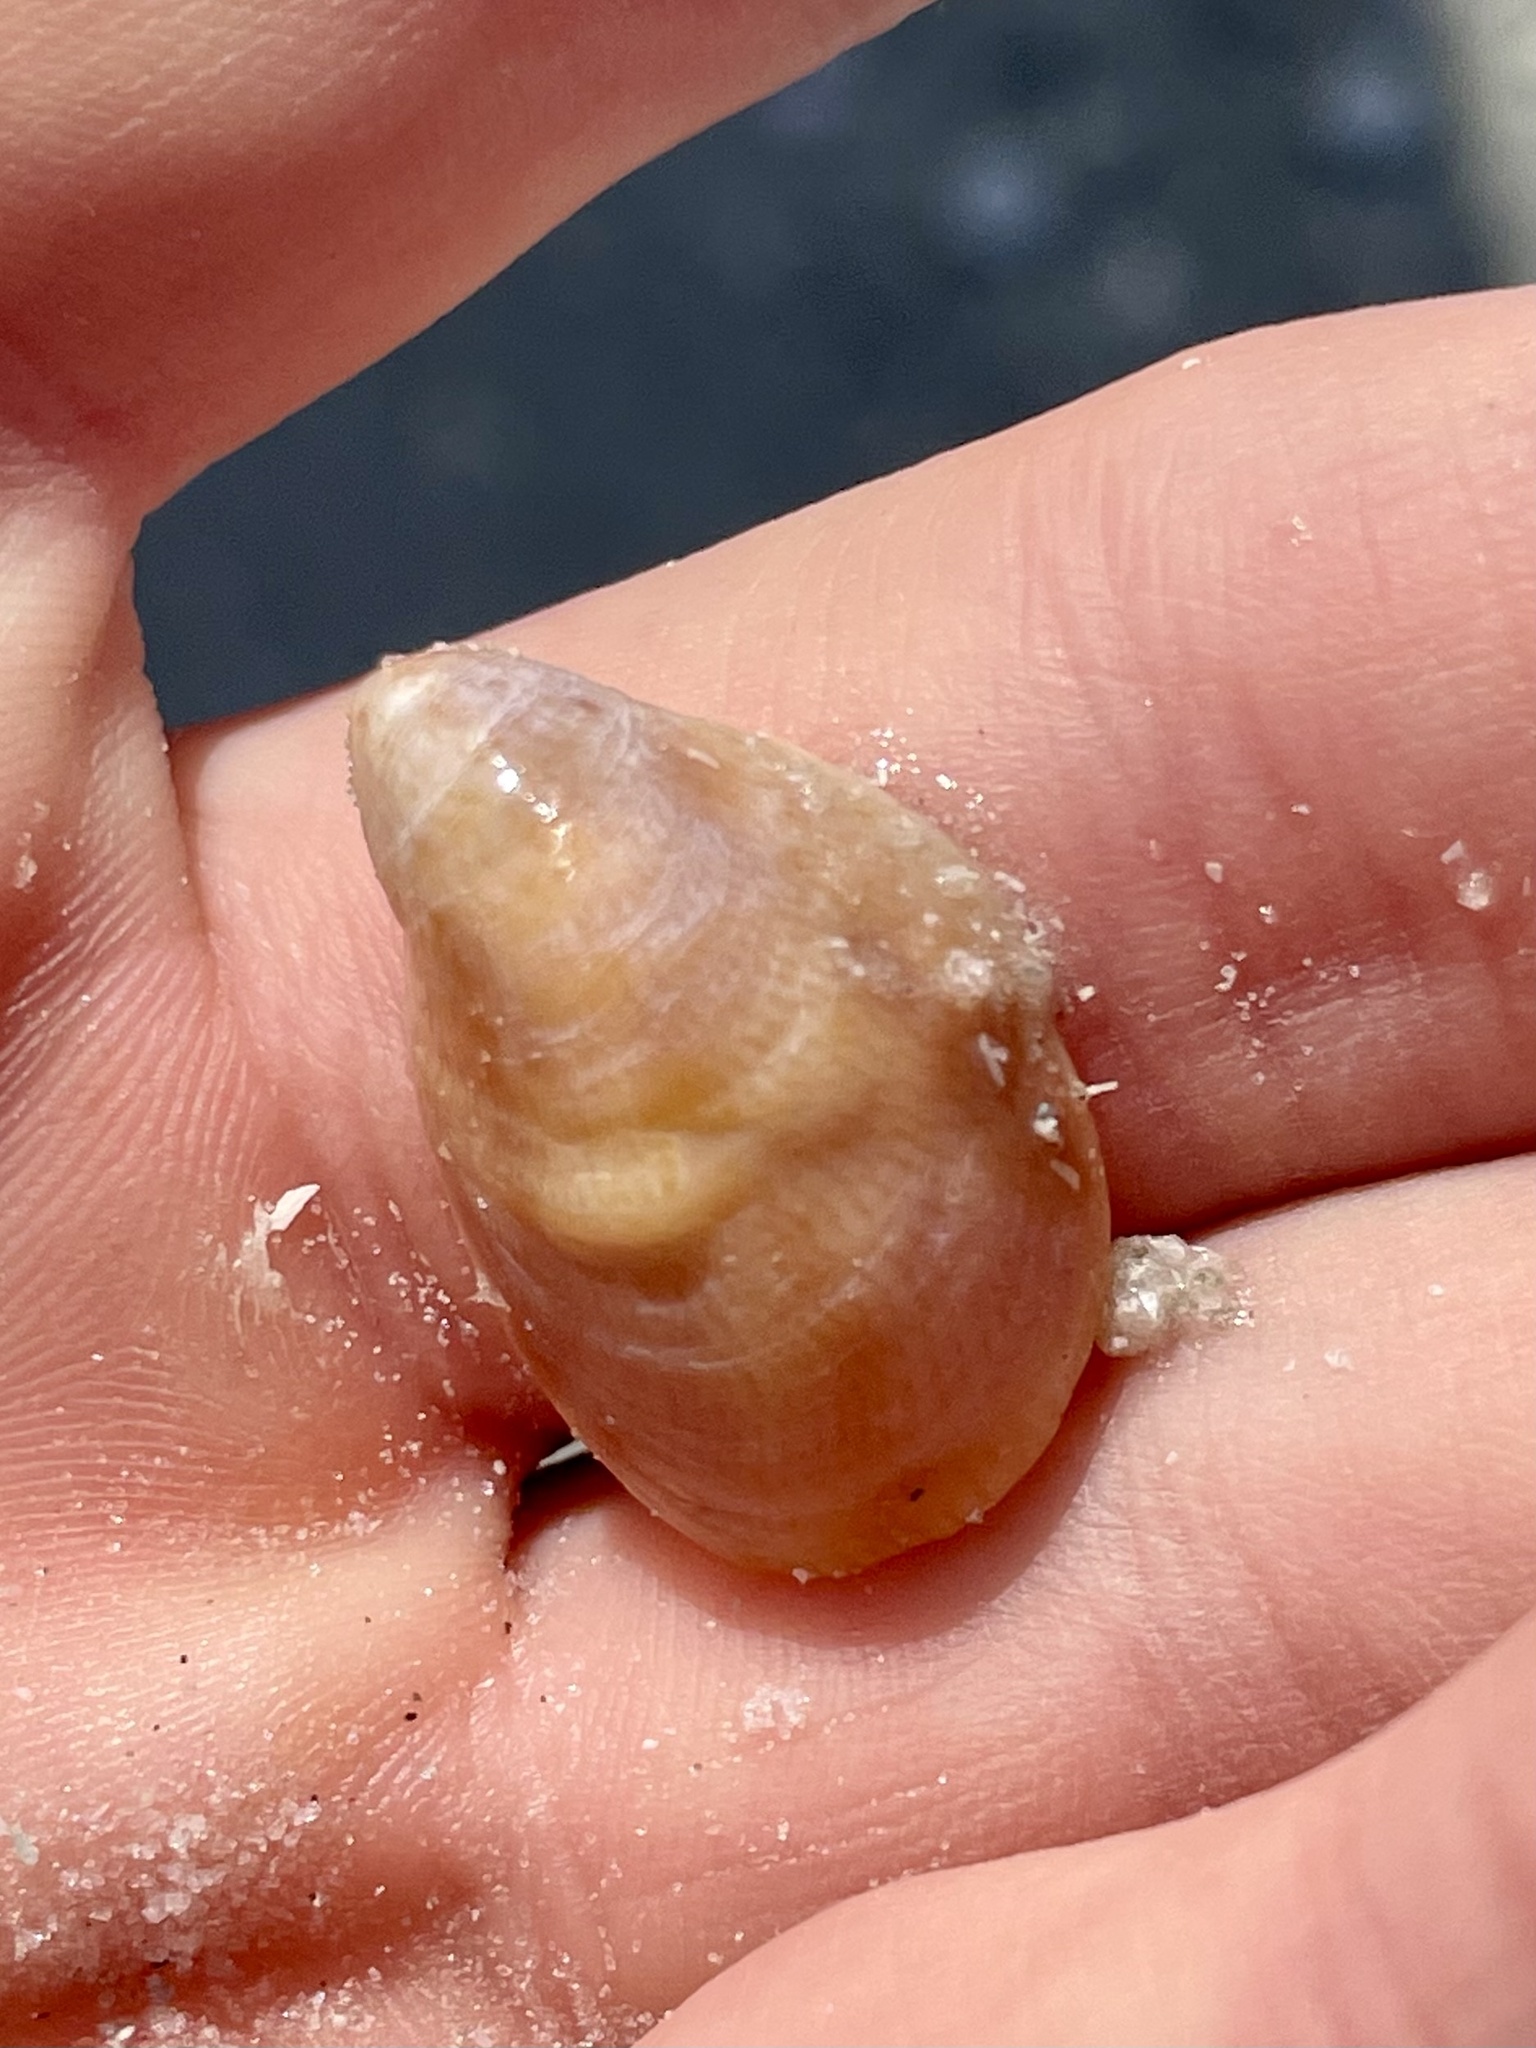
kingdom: Animalia
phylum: Mollusca
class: Gastropoda
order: Littorinimorpha
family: Calyptraeidae
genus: Crepidula
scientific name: Crepidula fornicata
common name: Slipper limpet
